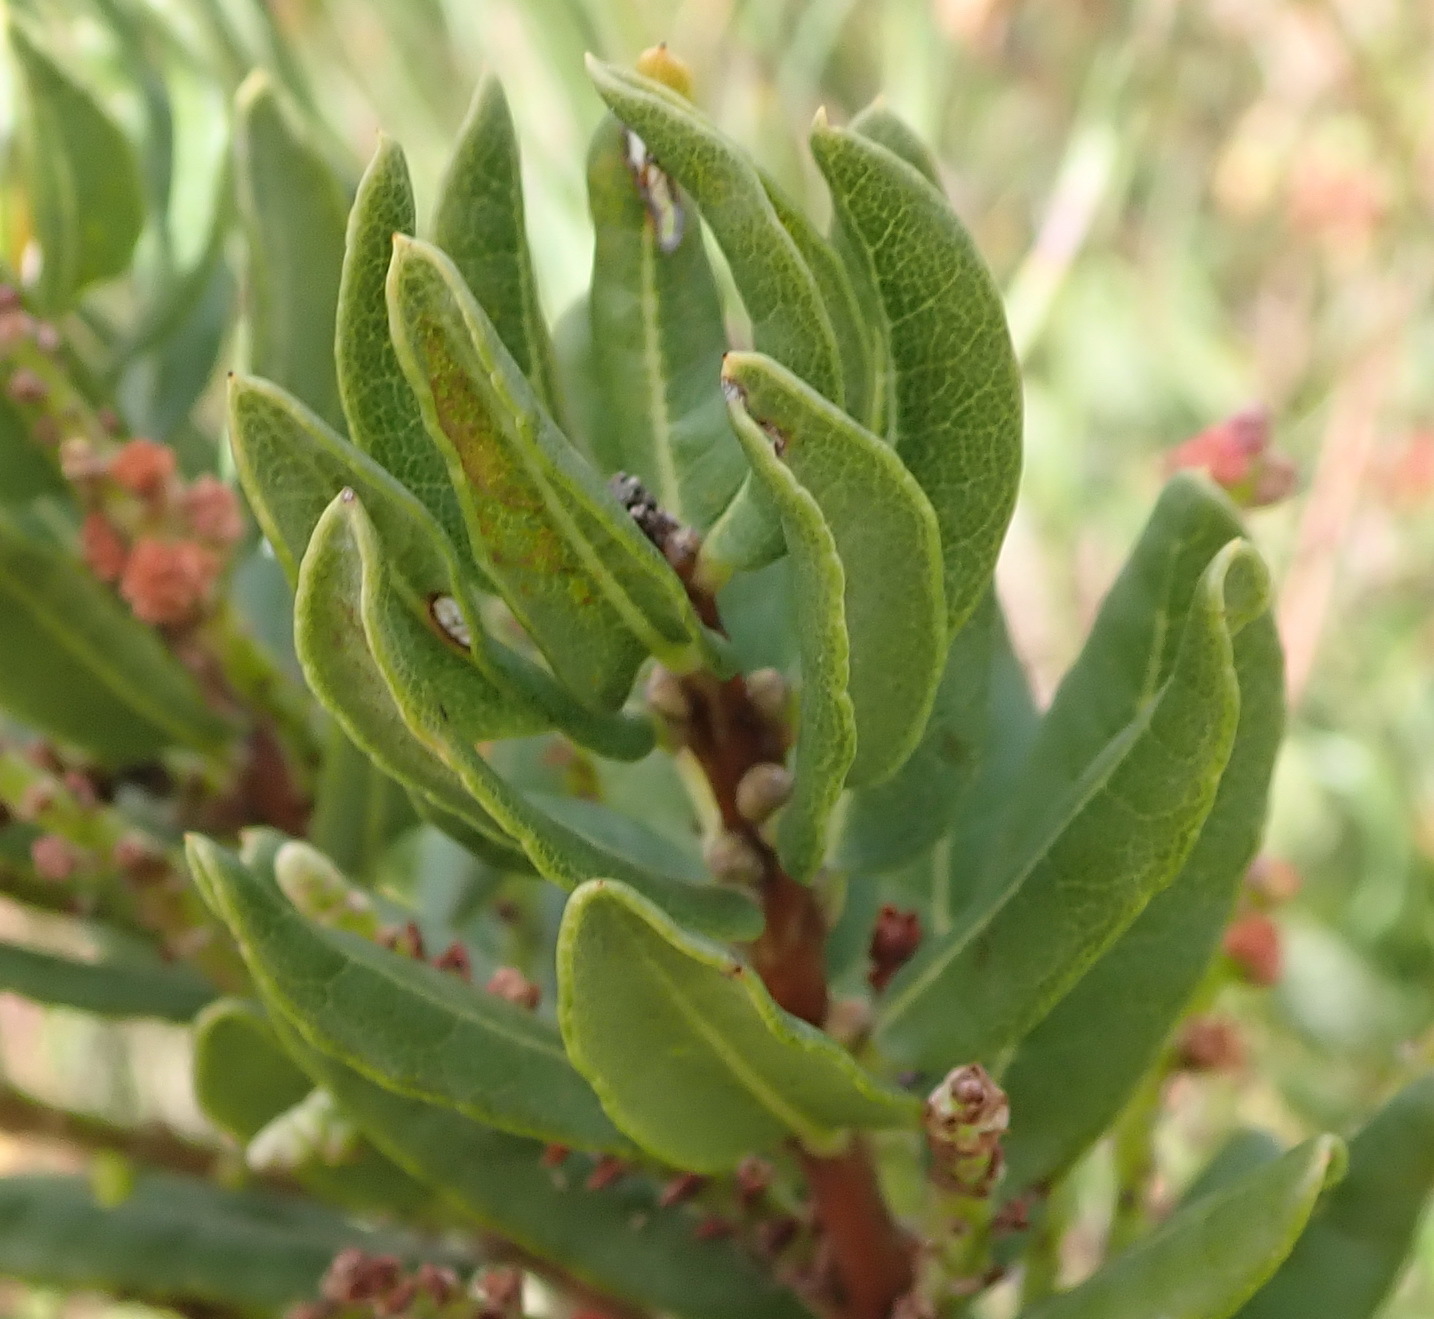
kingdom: Plantae
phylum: Tracheophyta
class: Magnoliopsida
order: Fagales
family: Myricaceae
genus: Morella
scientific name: Morella humilis
